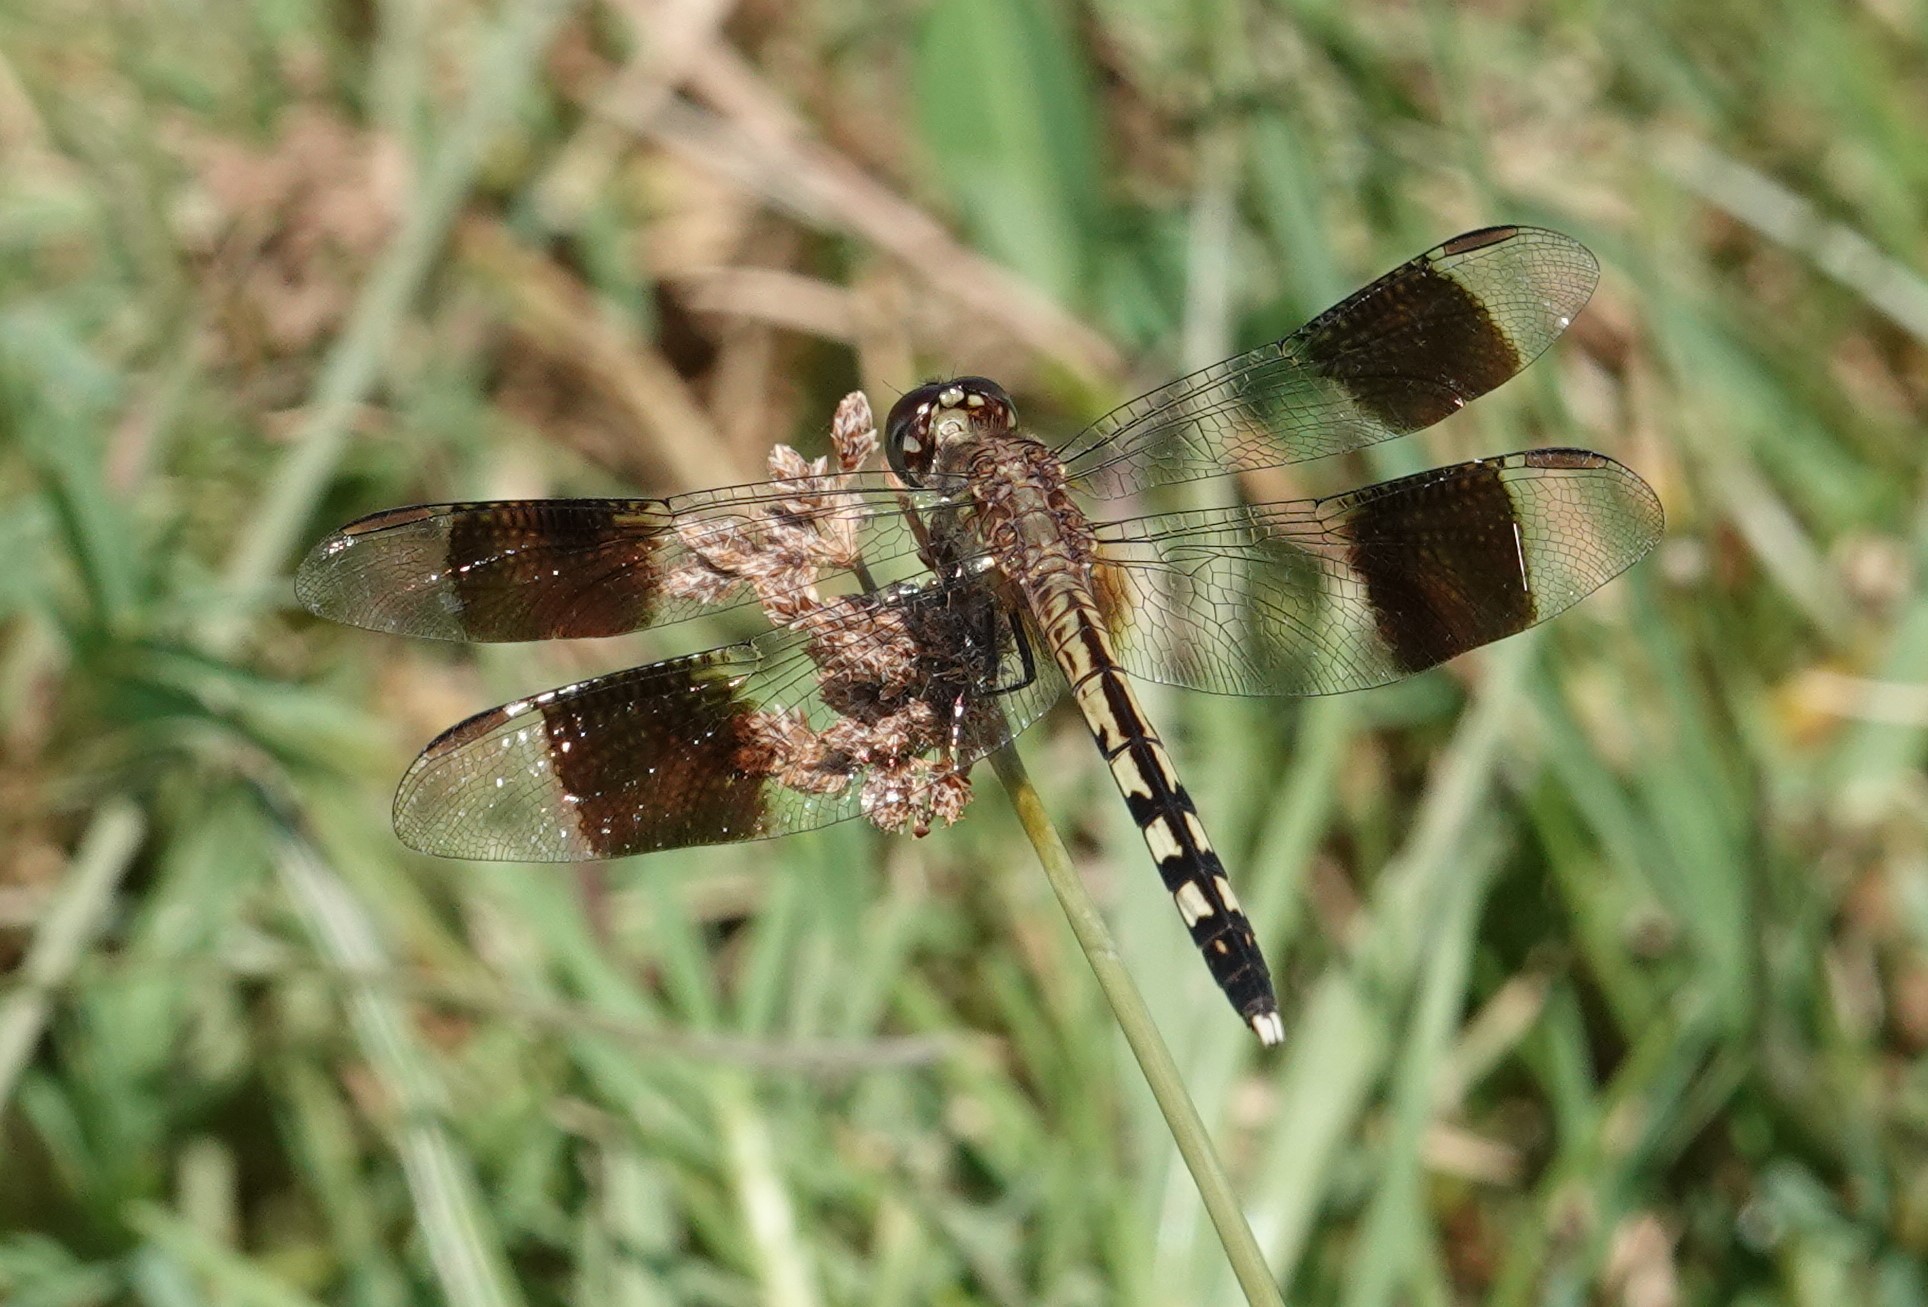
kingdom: Animalia
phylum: Arthropoda
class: Insecta
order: Odonata
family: Libellulidae
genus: Erythrodiplax
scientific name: Erythrodiplax umbrata
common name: Band-winged dragonlet
